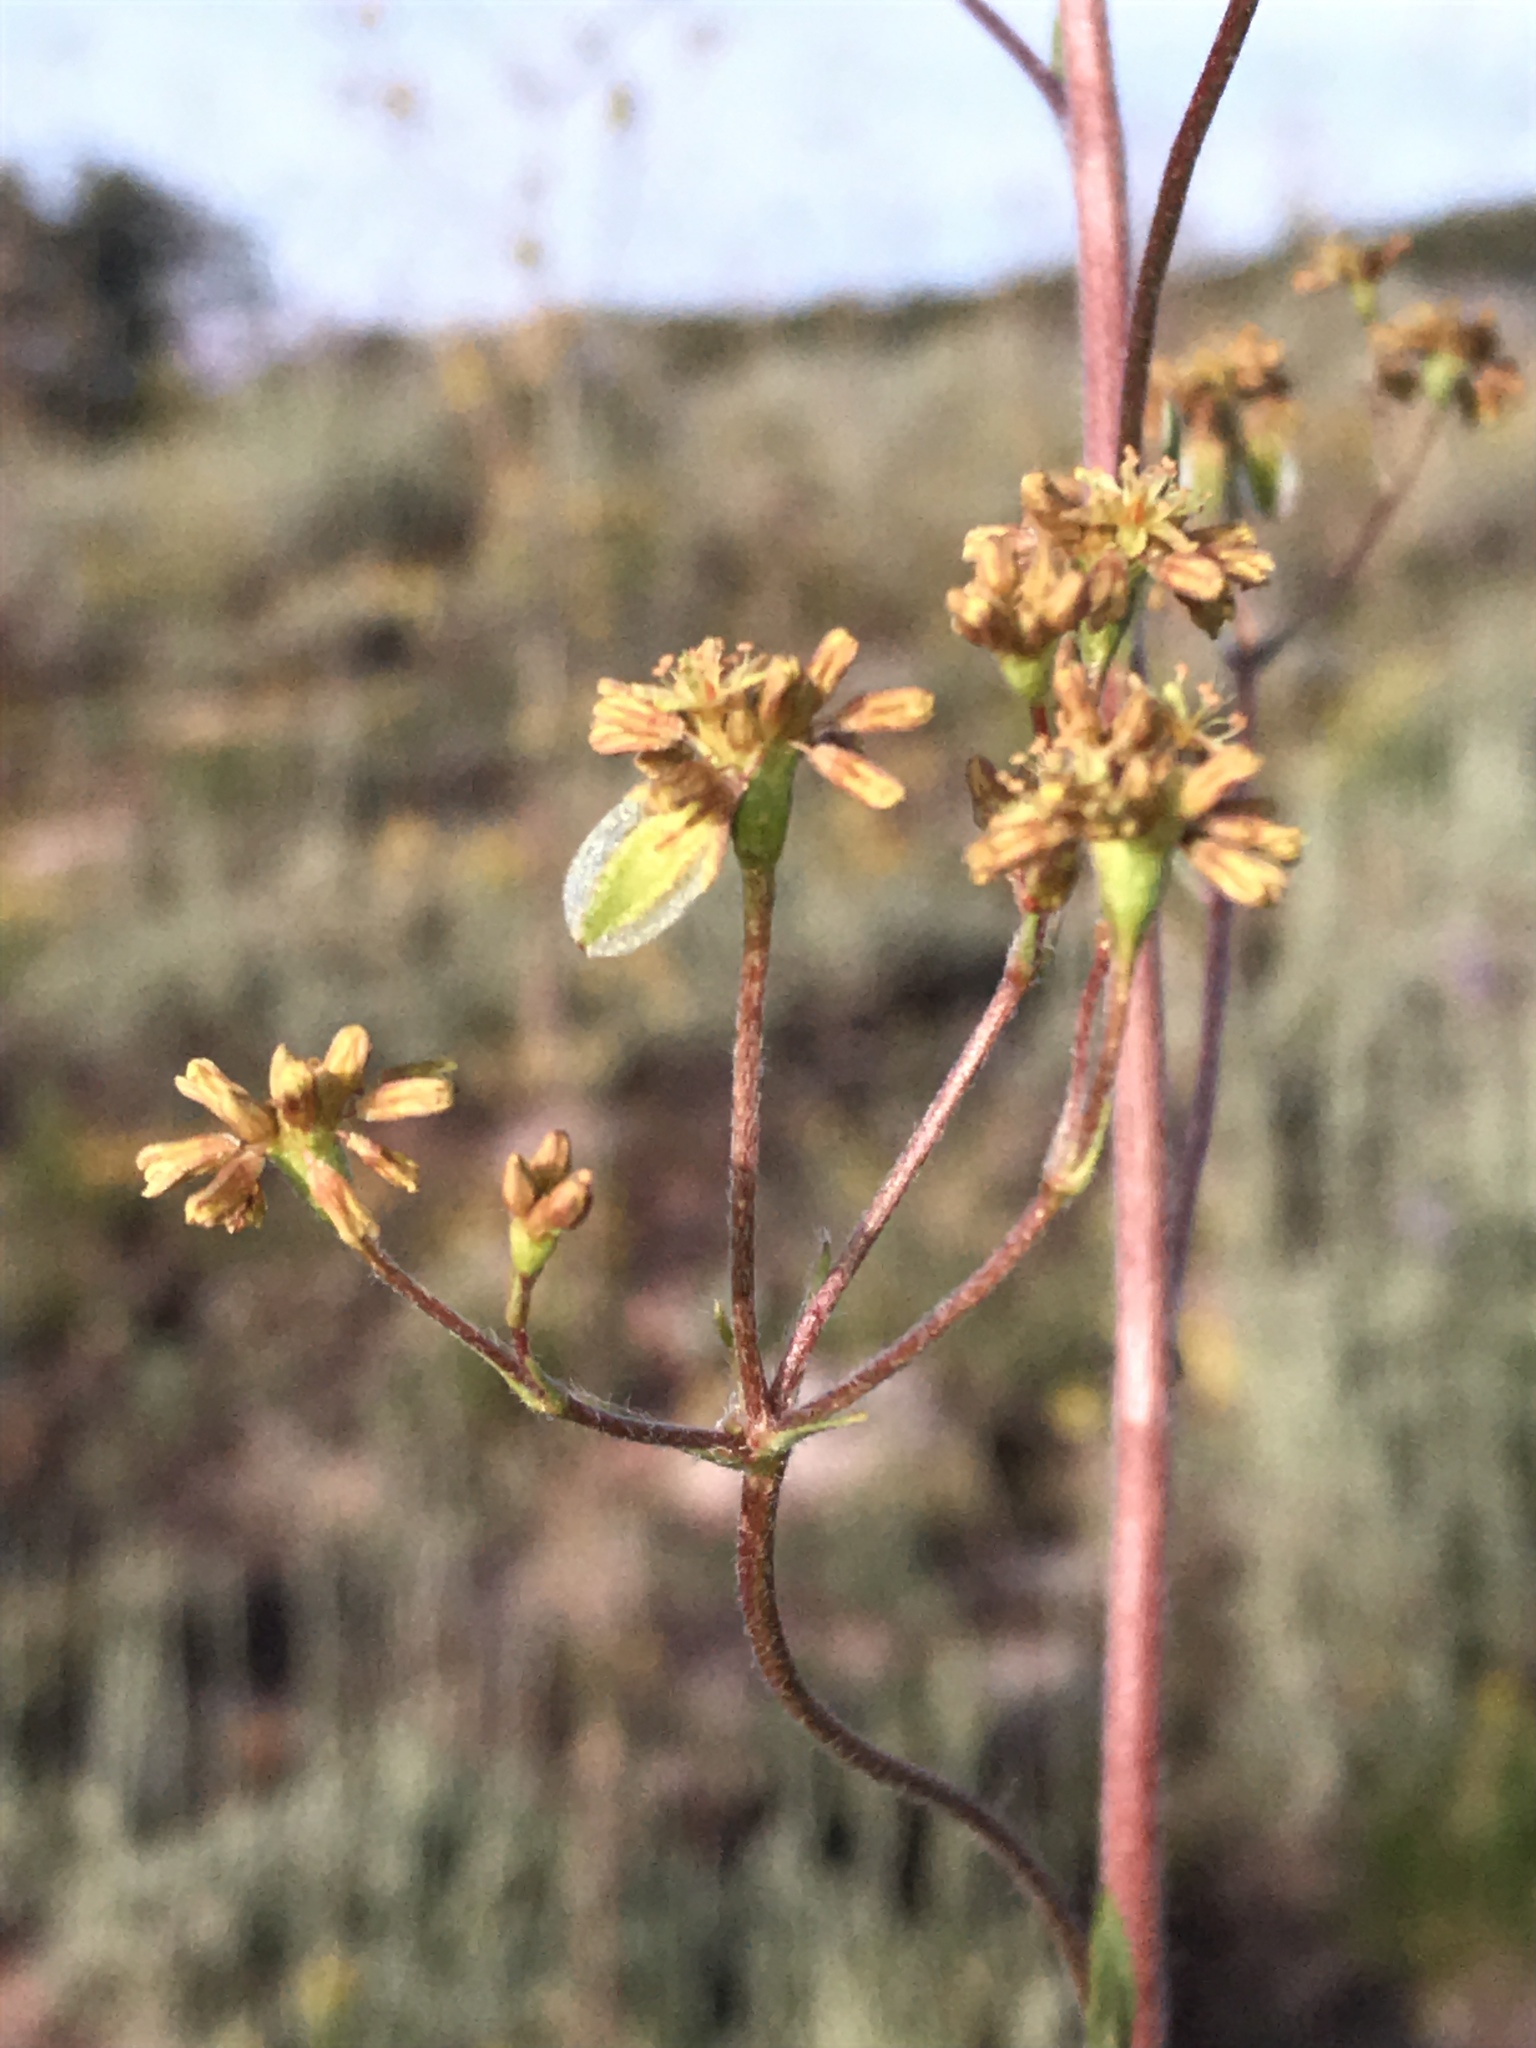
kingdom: Plantae
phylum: Tracheophyta
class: Magnoliopsida
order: Caryophyllales
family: Polygonaceae
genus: Eriogonum
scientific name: Eriogonum alatum
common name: Winged eriogonum
